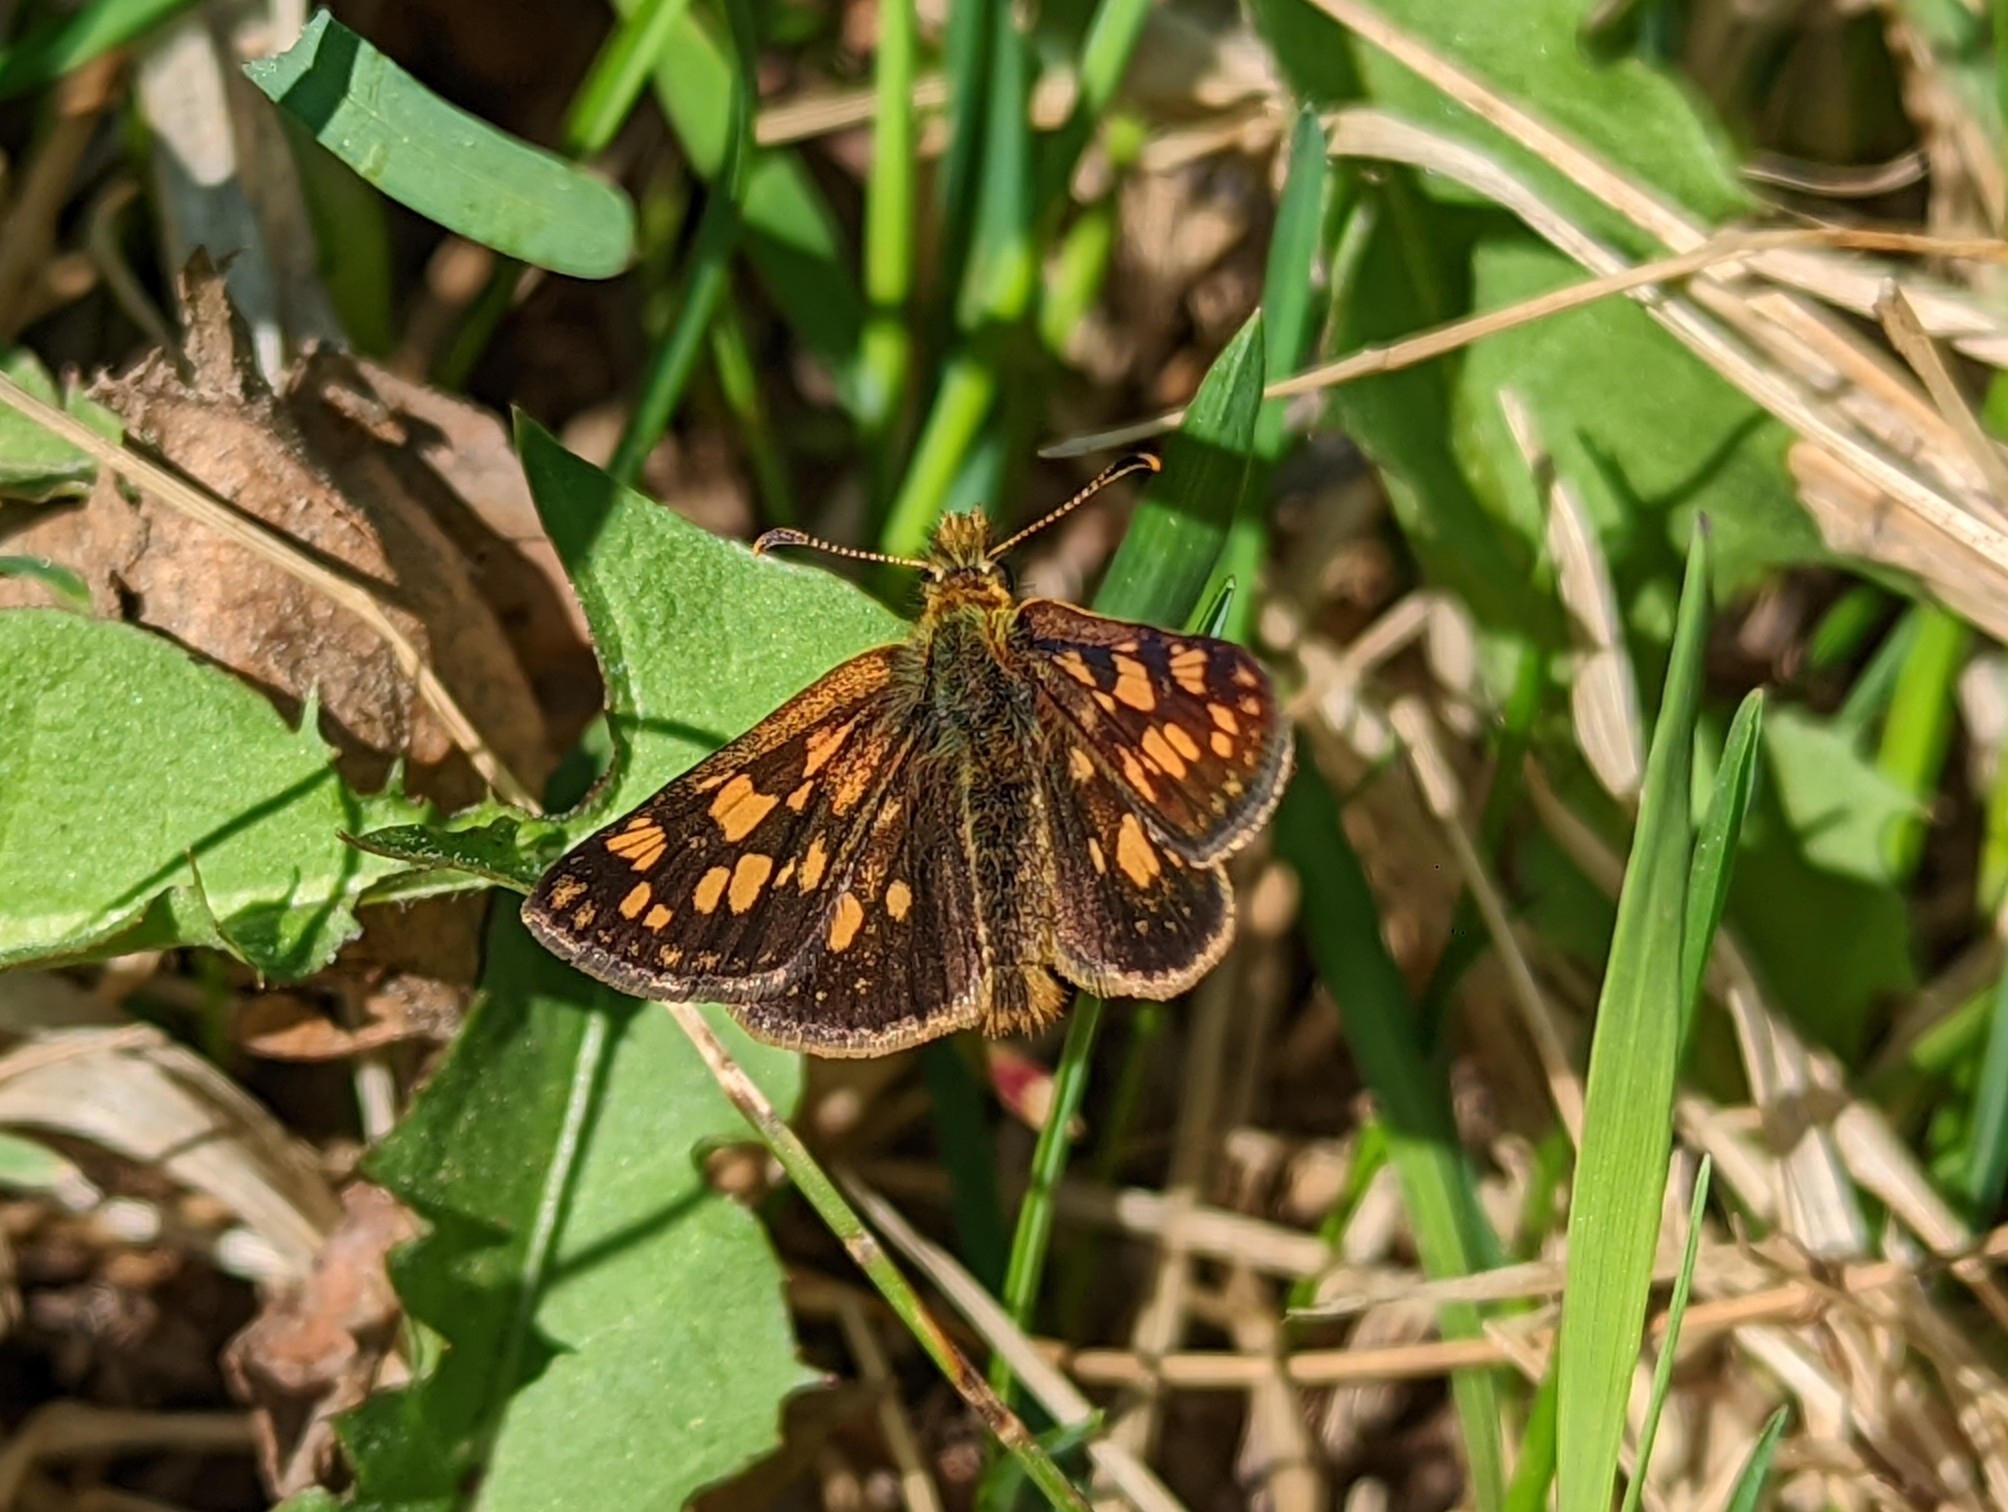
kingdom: Animalia
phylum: Arthropoda
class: Insecta
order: Lepidoptera
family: Hesperiidae
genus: Carterocephalus
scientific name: Carterocephalus skada
